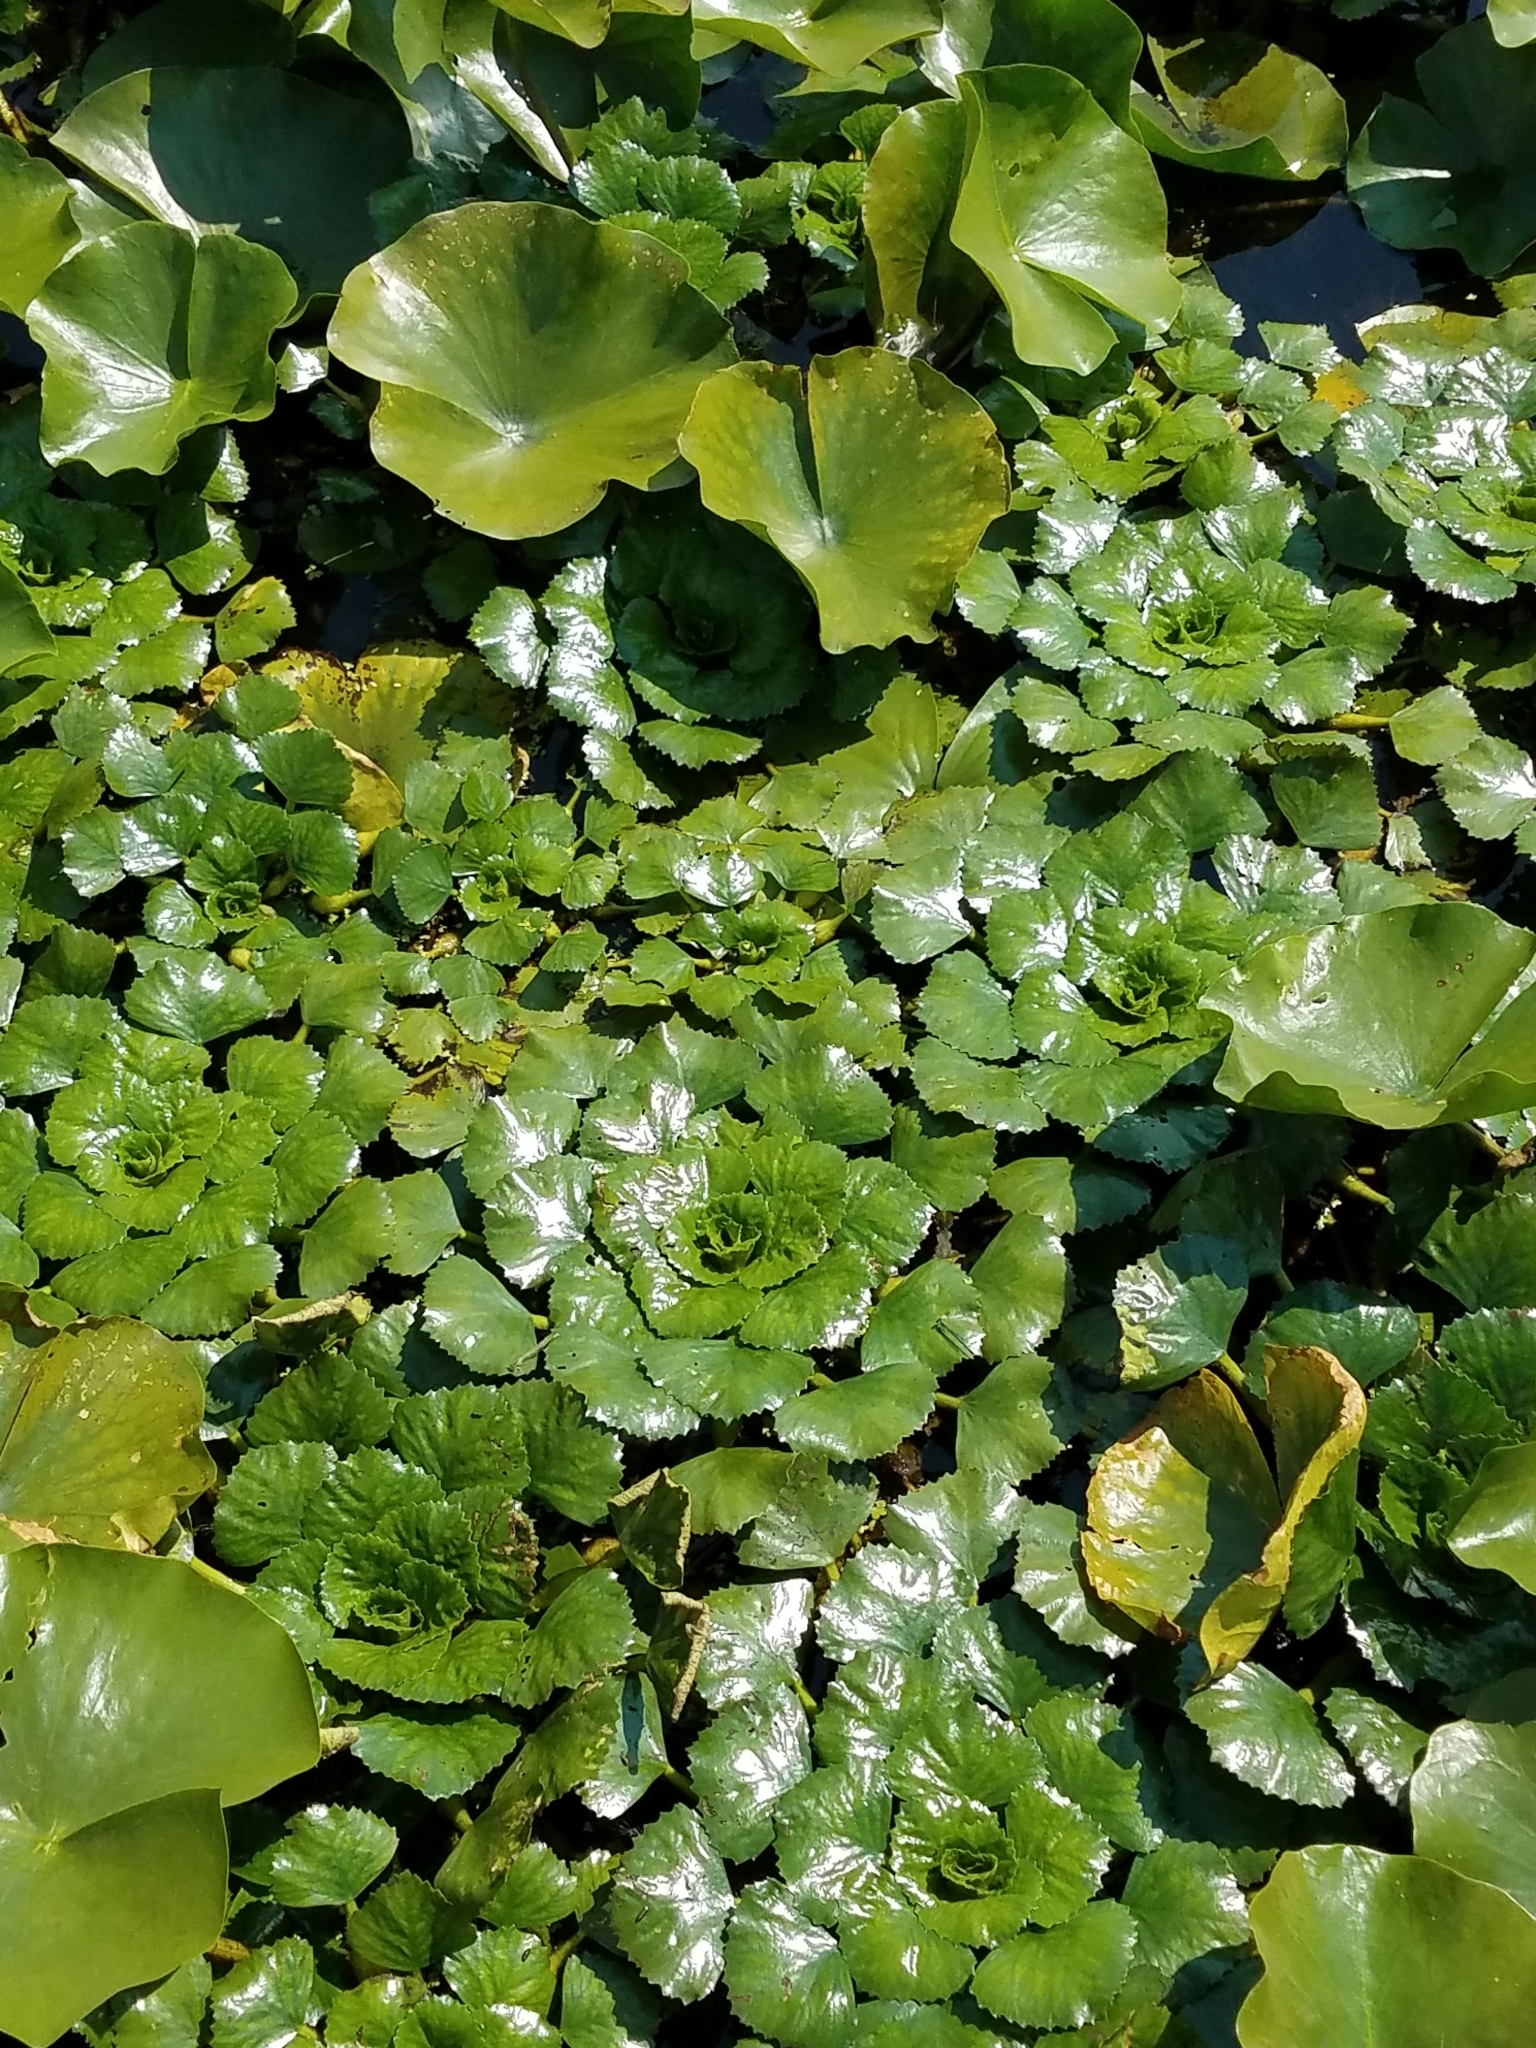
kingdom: Plantae
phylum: Tracheophyta
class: Magnoliopsida
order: Myrtales
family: Lythraceae
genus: Trapa
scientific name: Trapa natans
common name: Water chestnut
